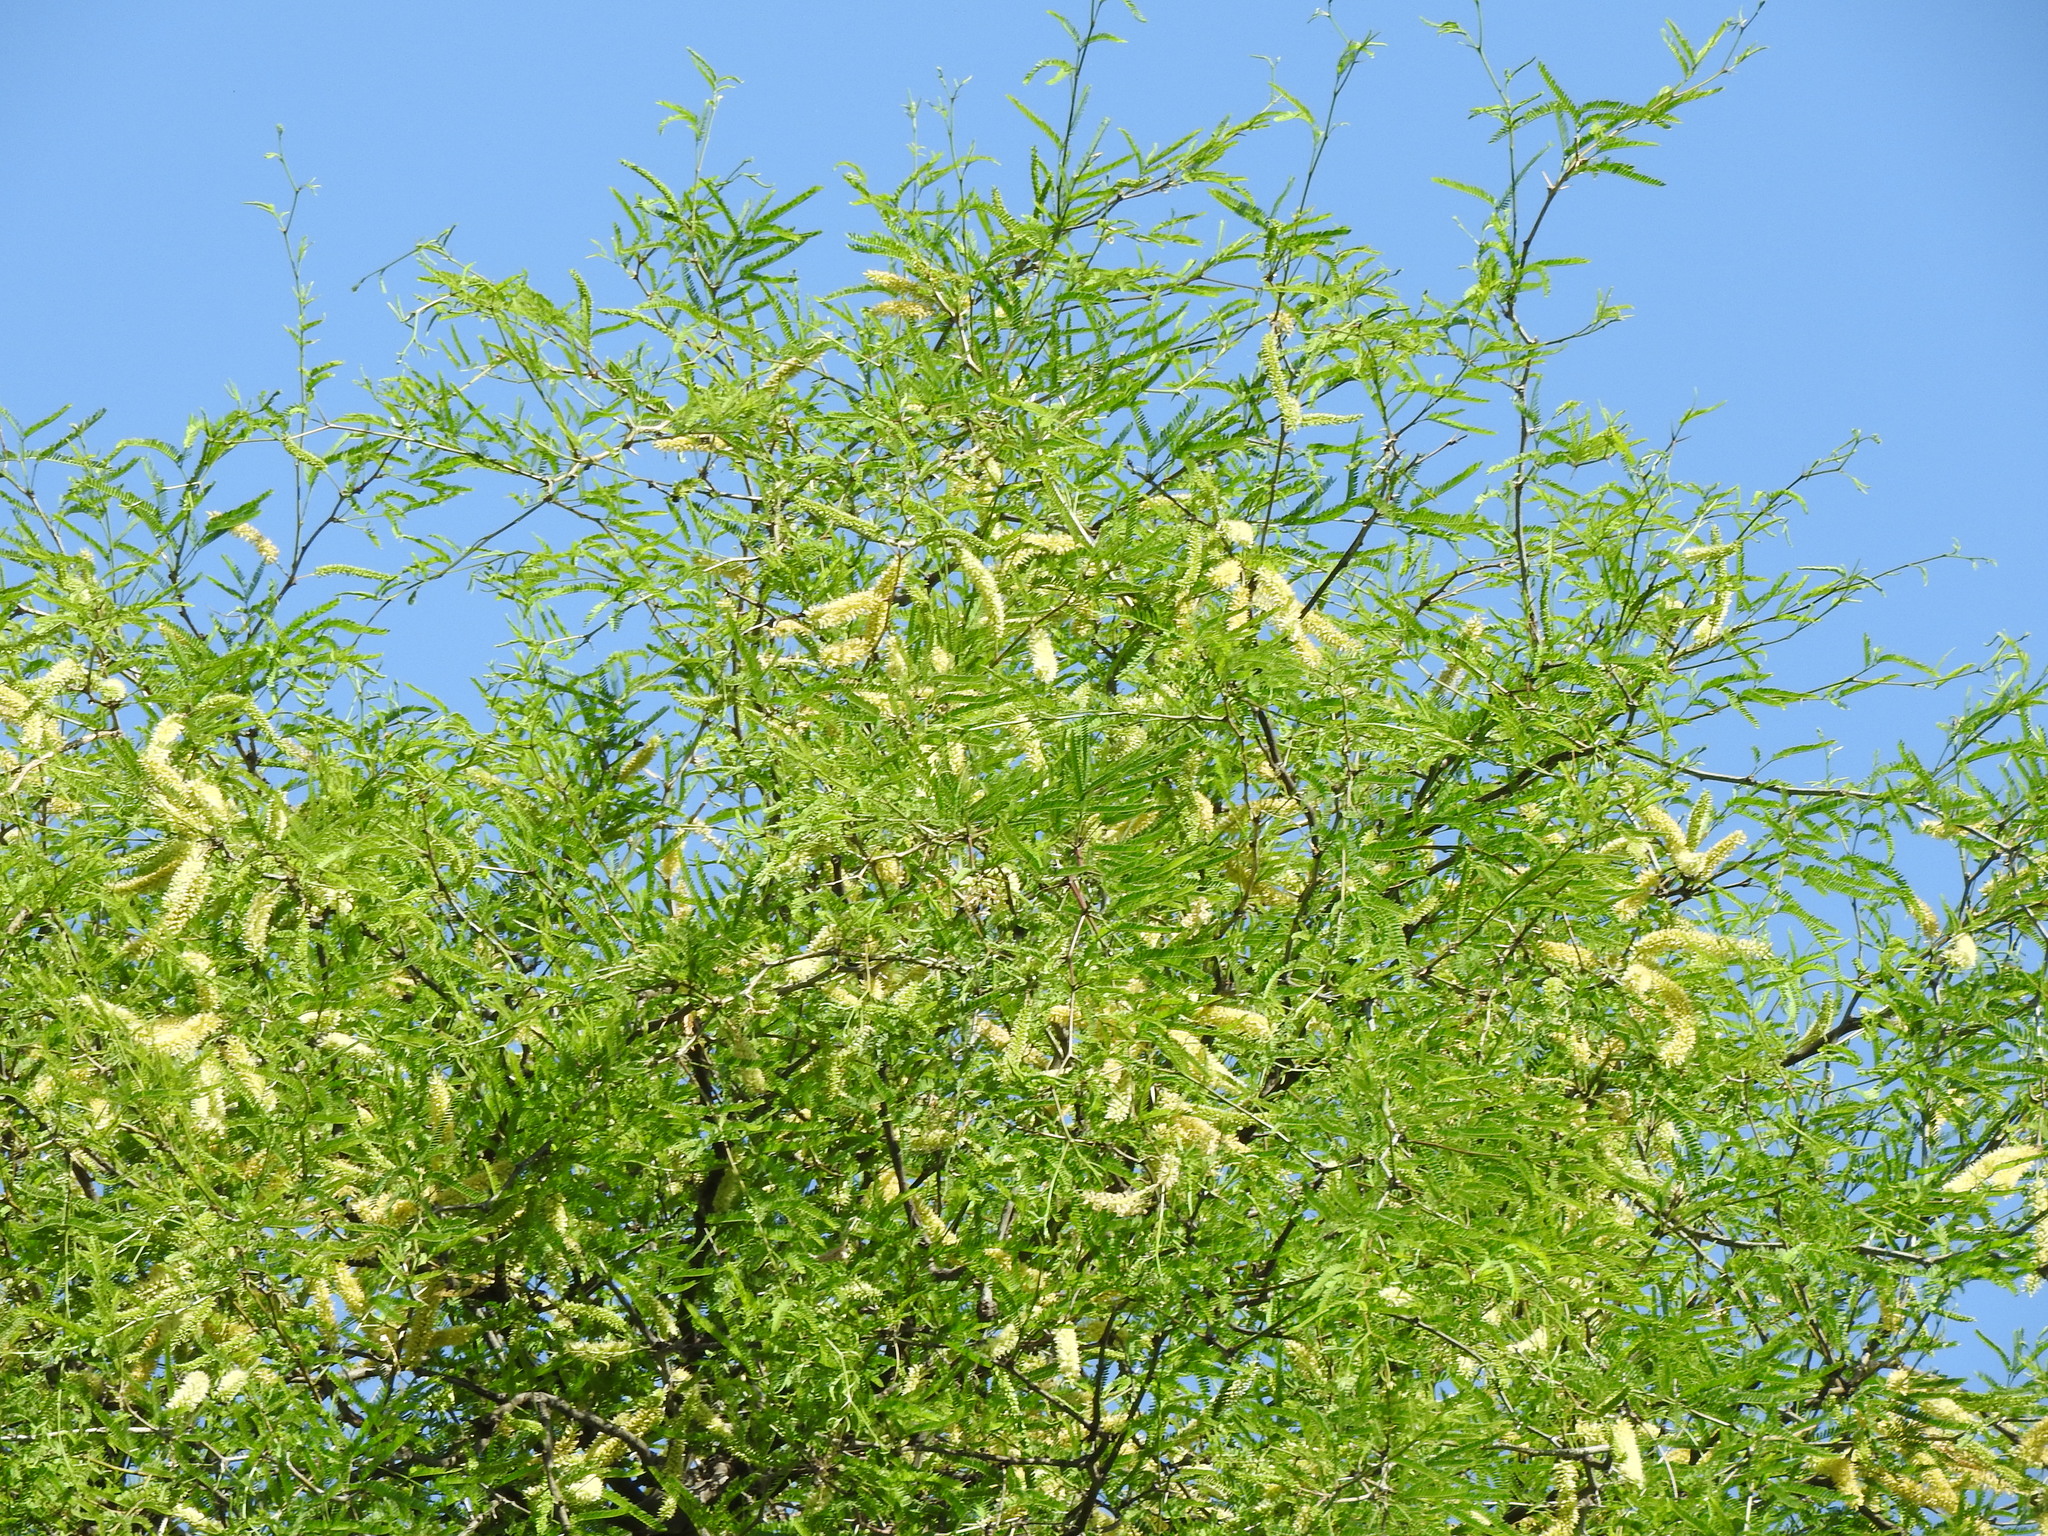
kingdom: Plantae
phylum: Tracheophyta
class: Magnoliopsida
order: Fabales
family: Fabaceae
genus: Prosopis
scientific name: Prosopis laevigata
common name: Smooth mesquite
